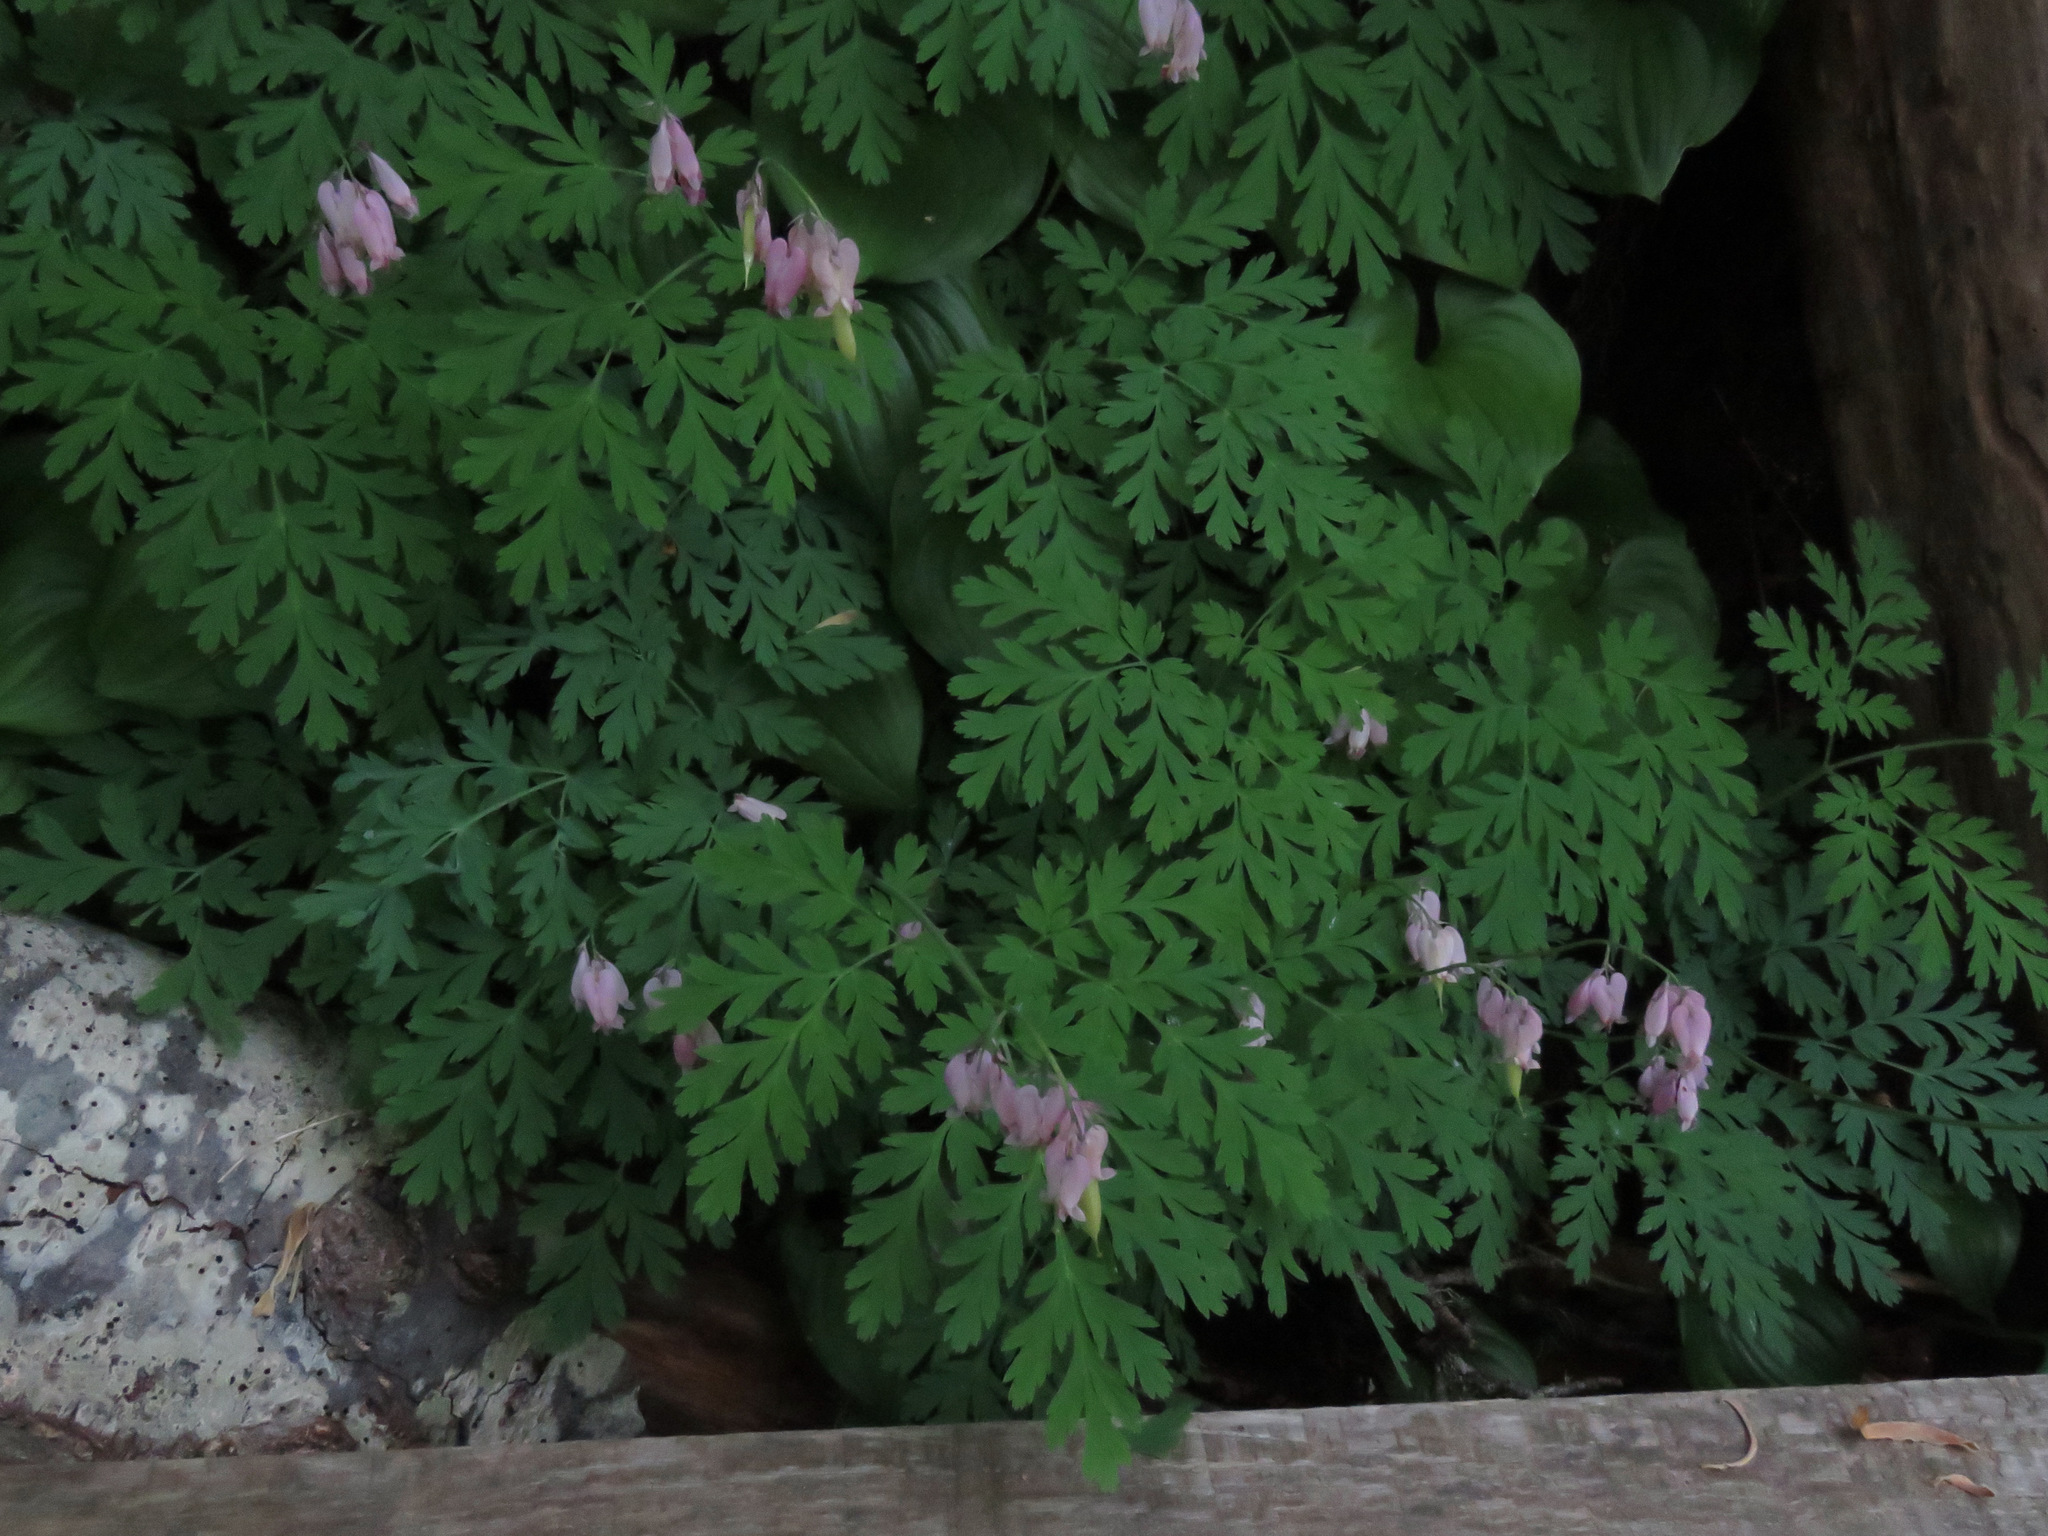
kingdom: Plantae
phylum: Tracheophyta
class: Magnoliopsida
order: Ranunculales
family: Papaveraceae
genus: Dicentra
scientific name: Dicentra formosa
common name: Bleeding-heart
